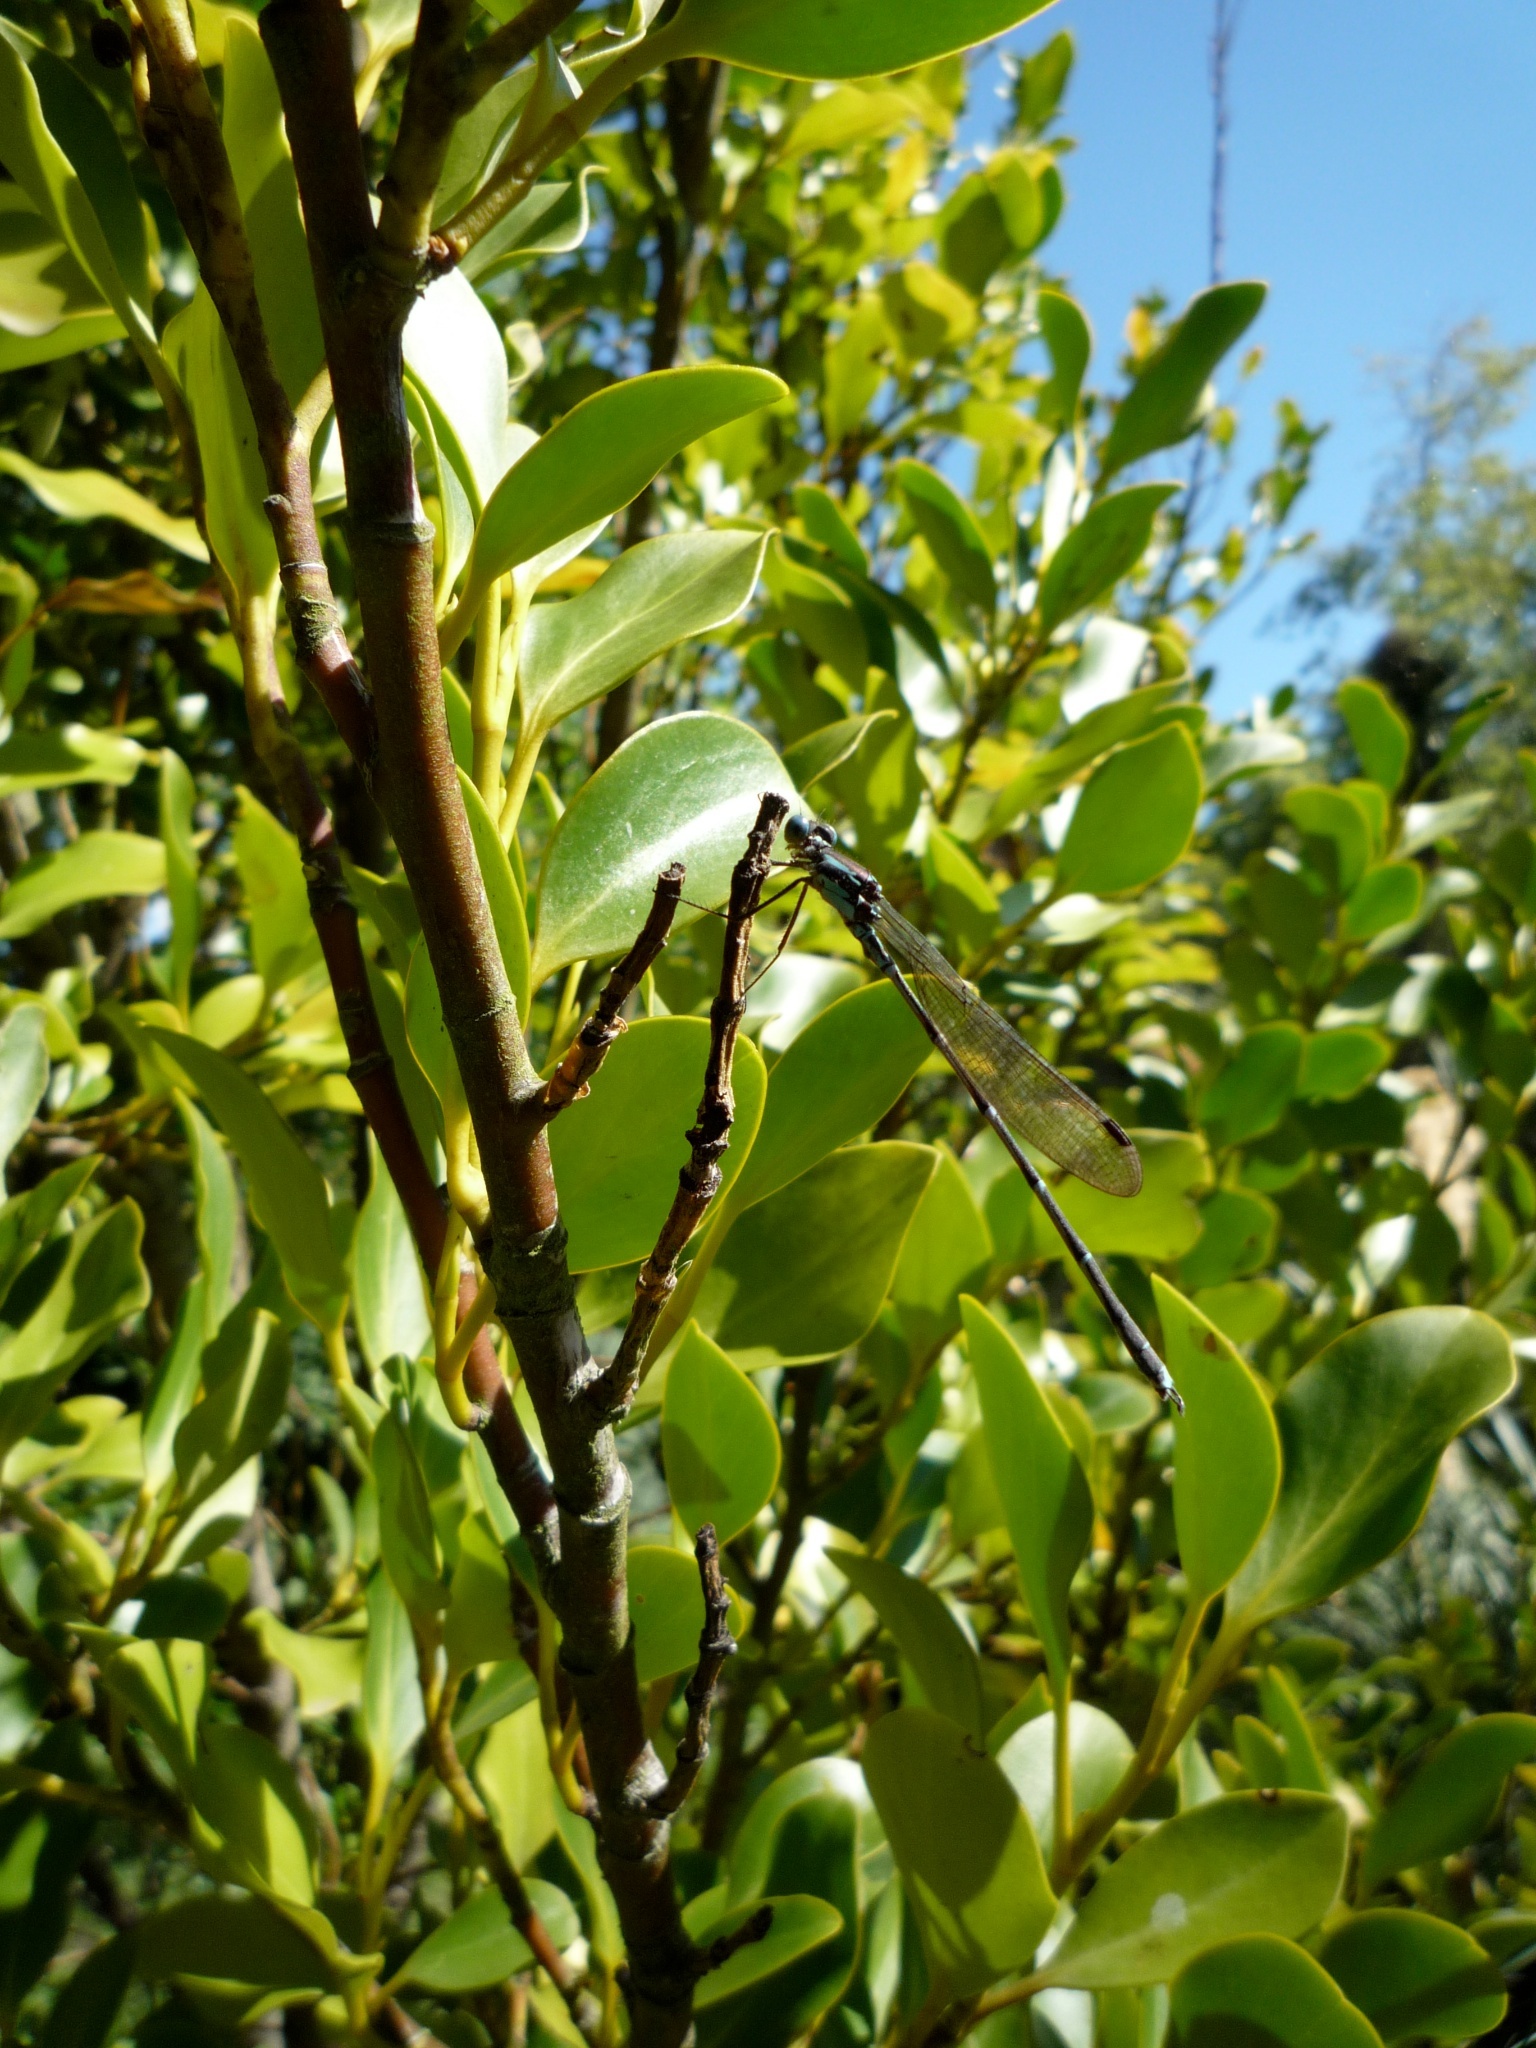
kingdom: Animalia
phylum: Arthropoda
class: Insecta
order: Odonata
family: Lestidae
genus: Austrolestes
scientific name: Austrolestes colensonis
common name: Blue damselfly
